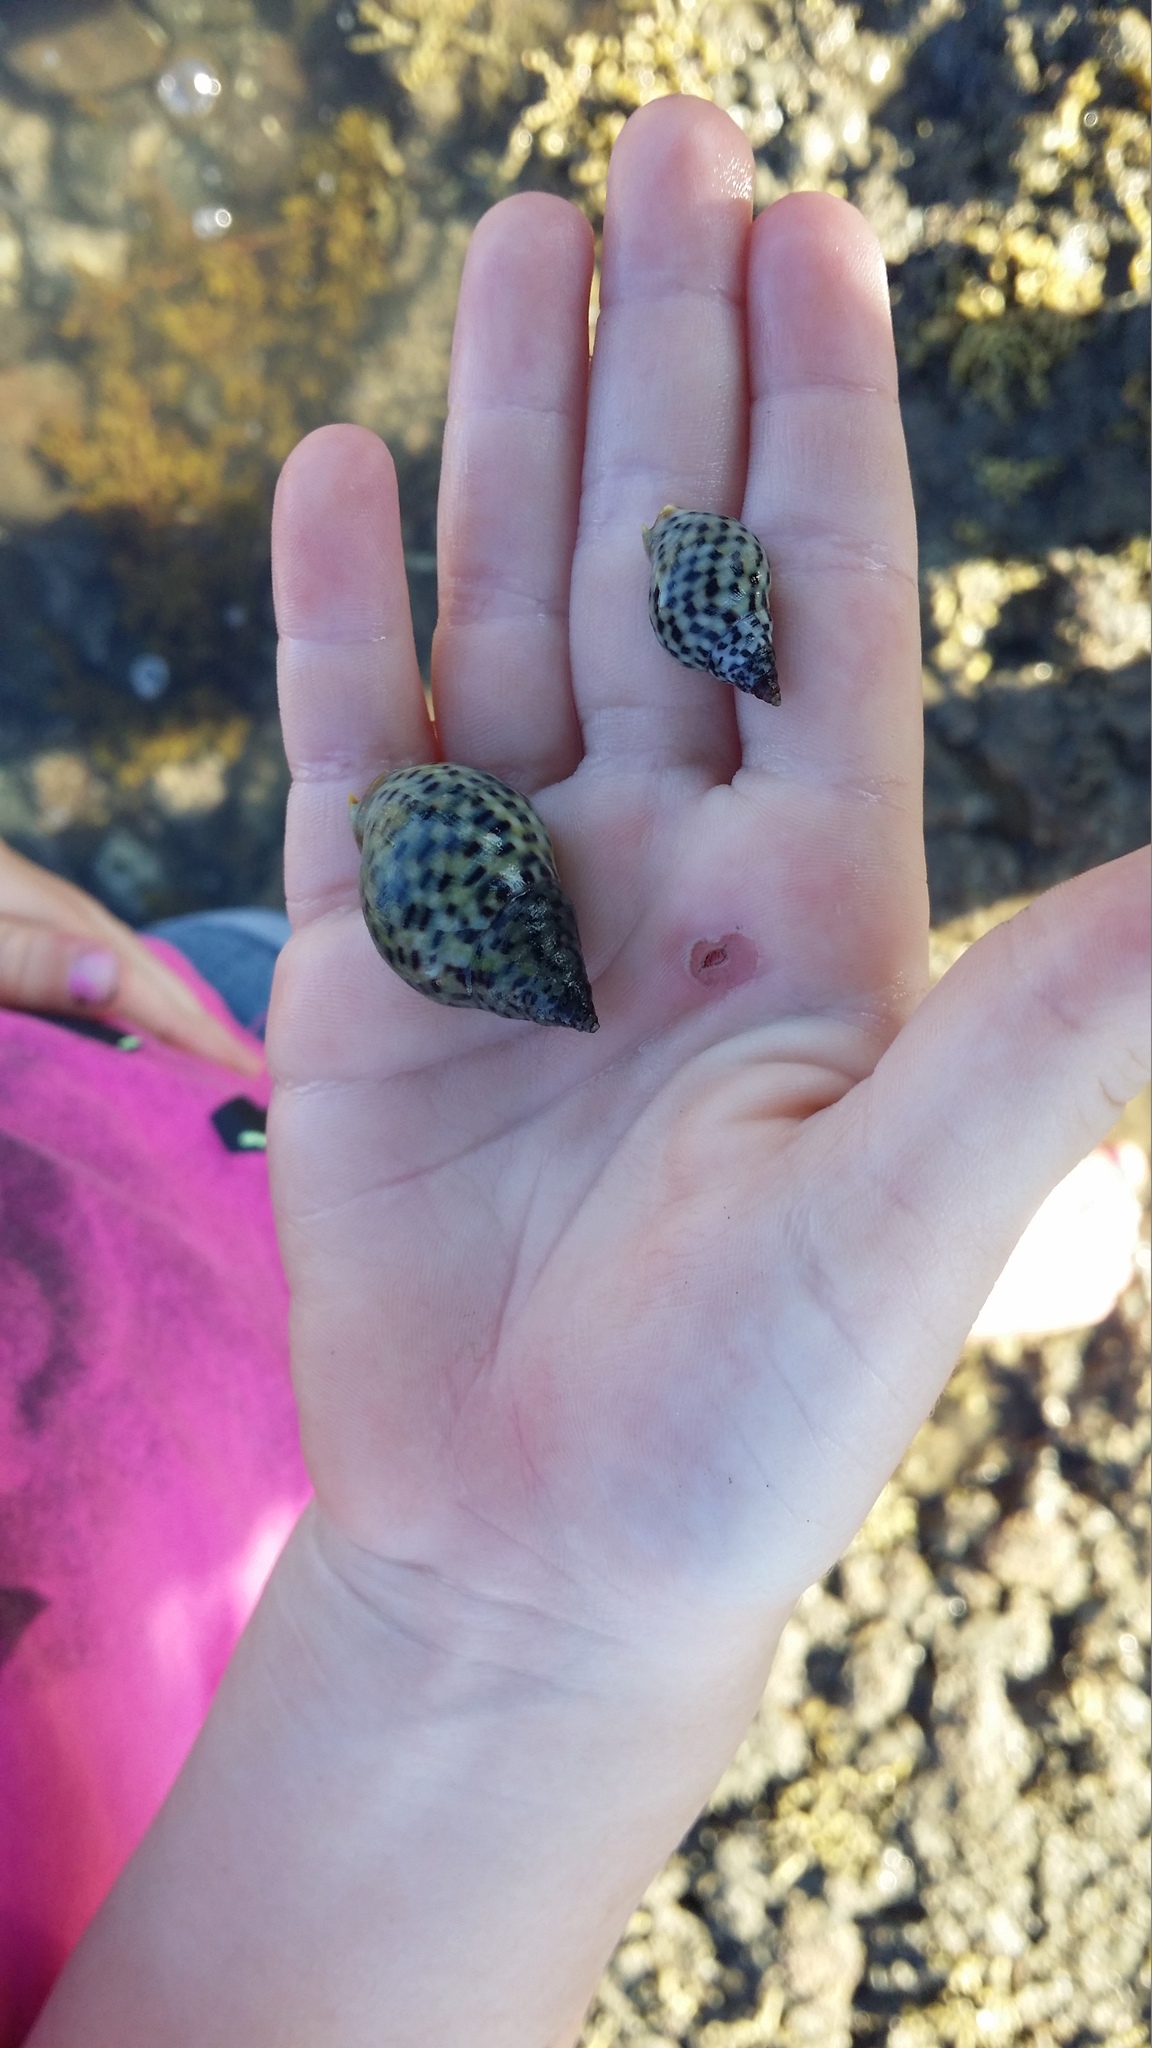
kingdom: Animalia
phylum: Mollusca
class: Gastropoda
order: Neogastropoda
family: Cominellidae
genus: Cominella
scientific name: Cominella maculosa
